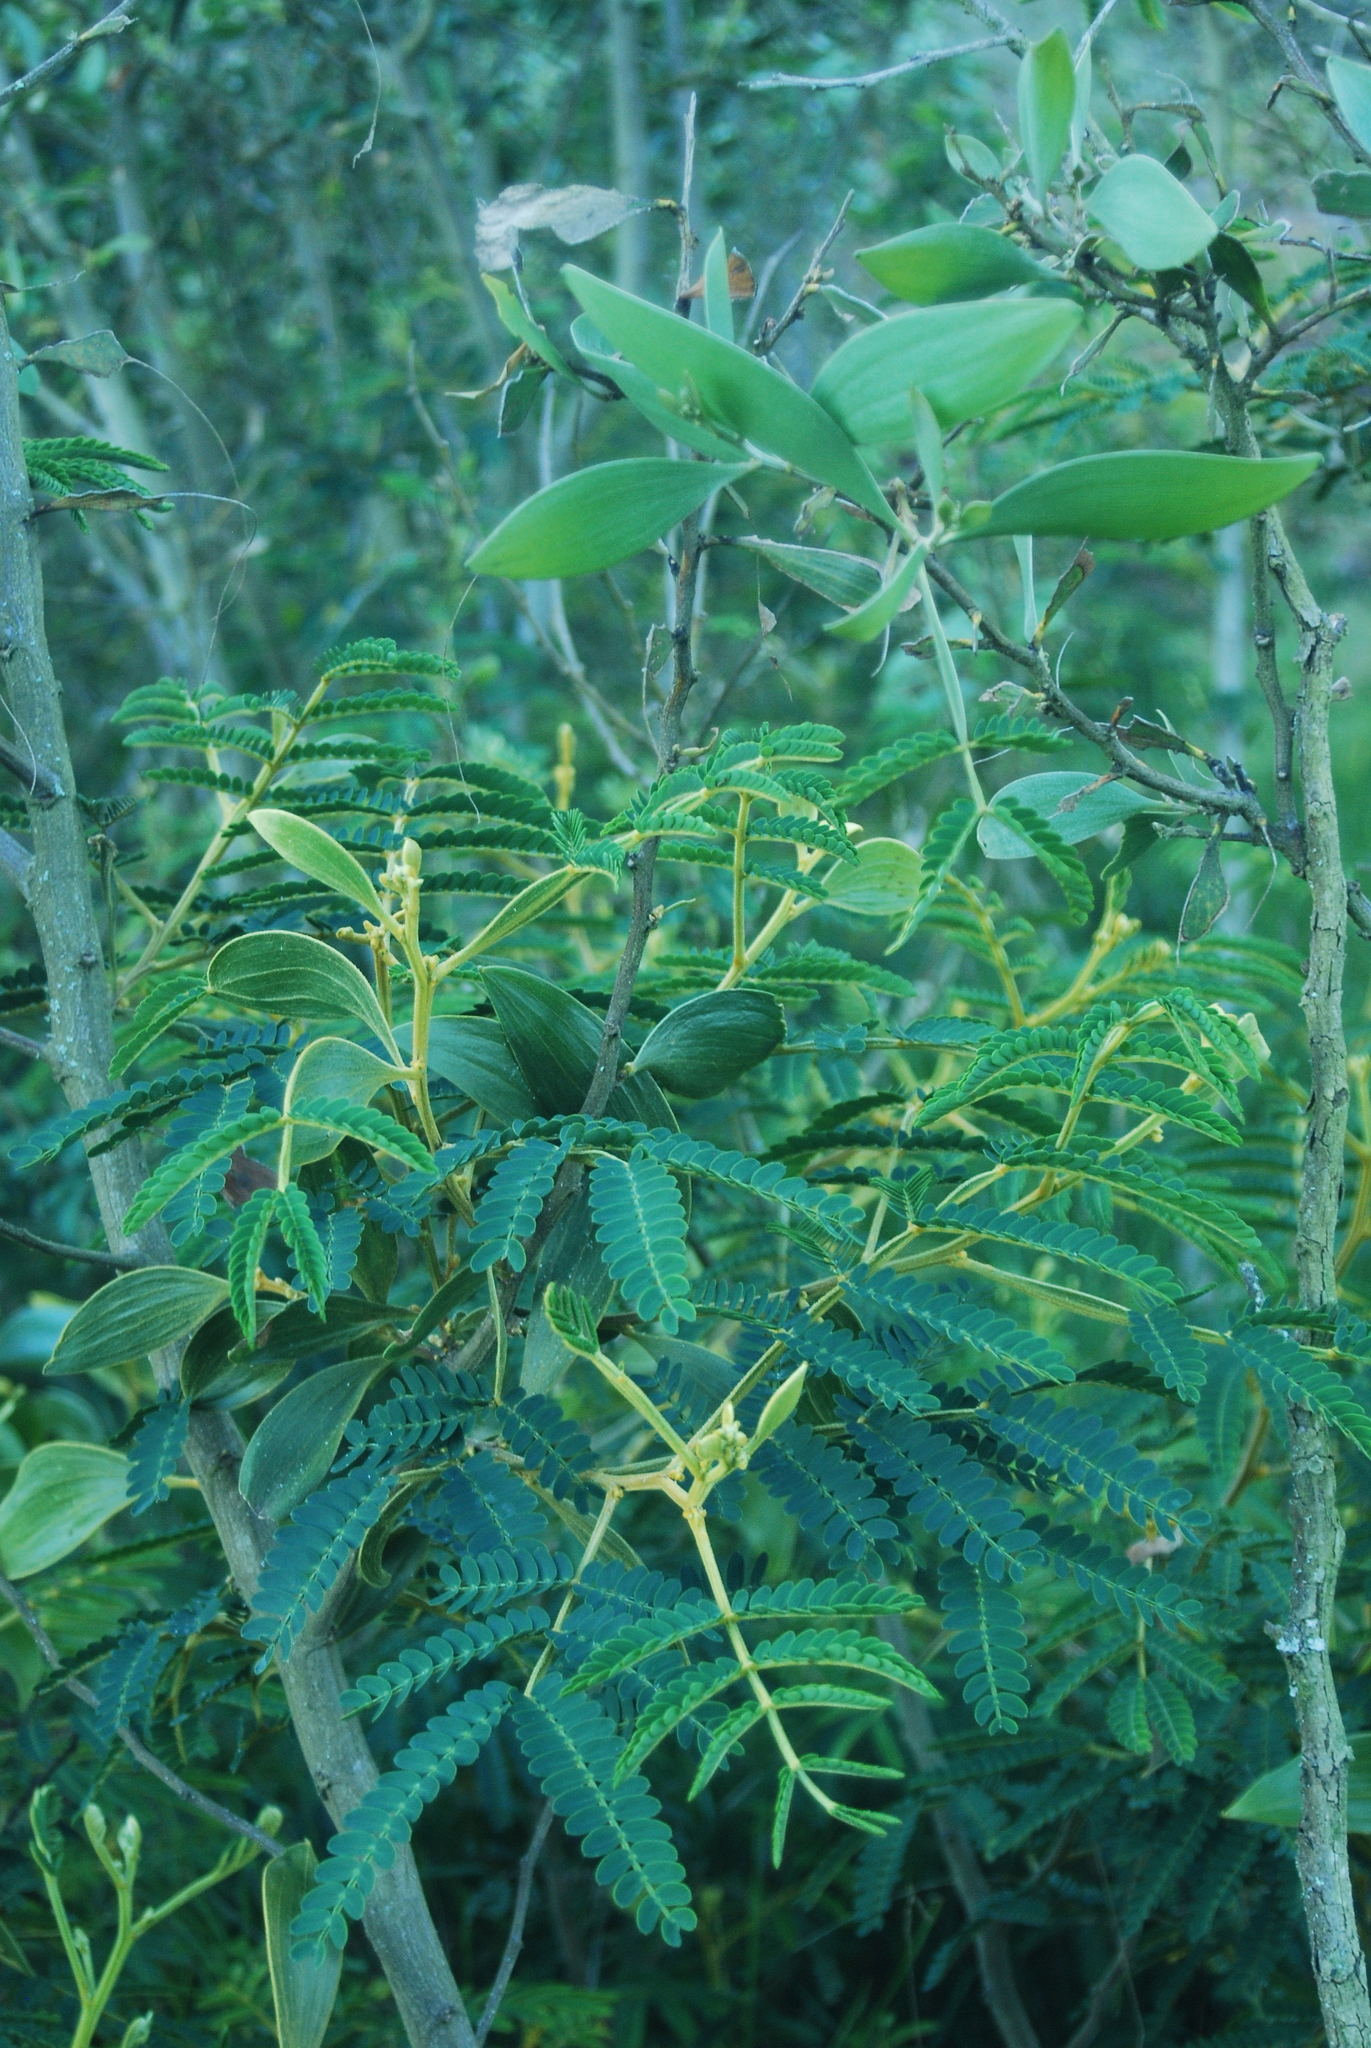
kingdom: Plantae
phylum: Tracheophyta
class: Magnoliopsida
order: Fabales
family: Fabaceae
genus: Acacia
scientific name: Acacia koa
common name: Gray koa
